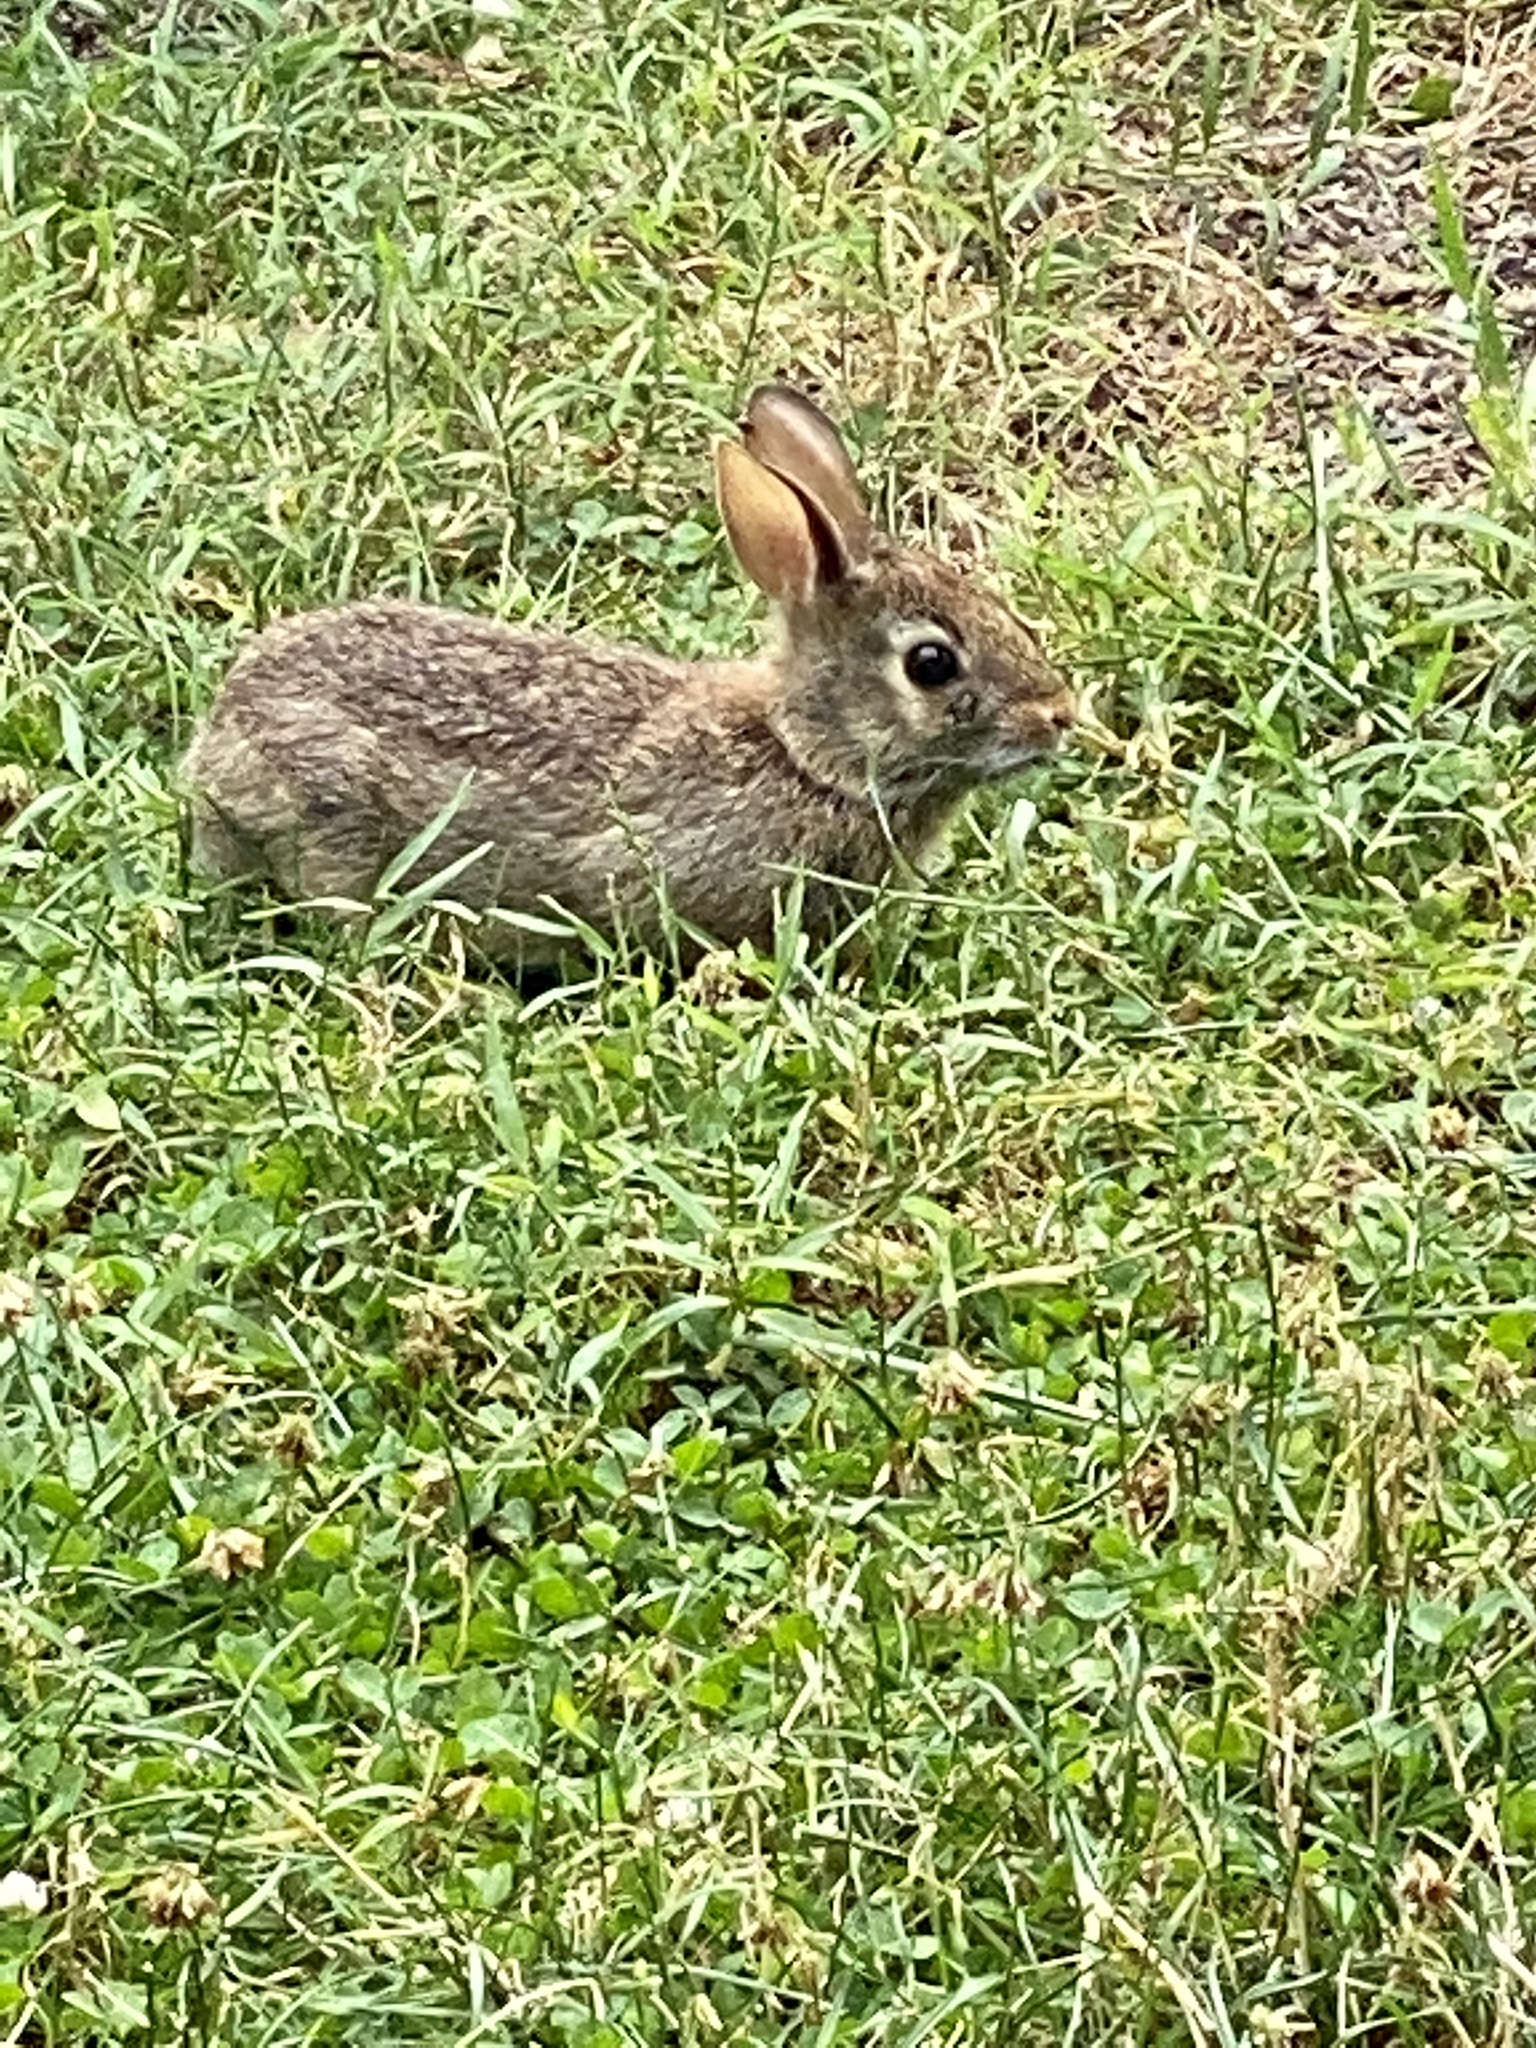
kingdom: Animalia
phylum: Chordata
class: Mammalia
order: Lagomorpha
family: Leporidae
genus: Sylvilagus
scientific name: Sylvilagus floridanus
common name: Eastern cottontail
